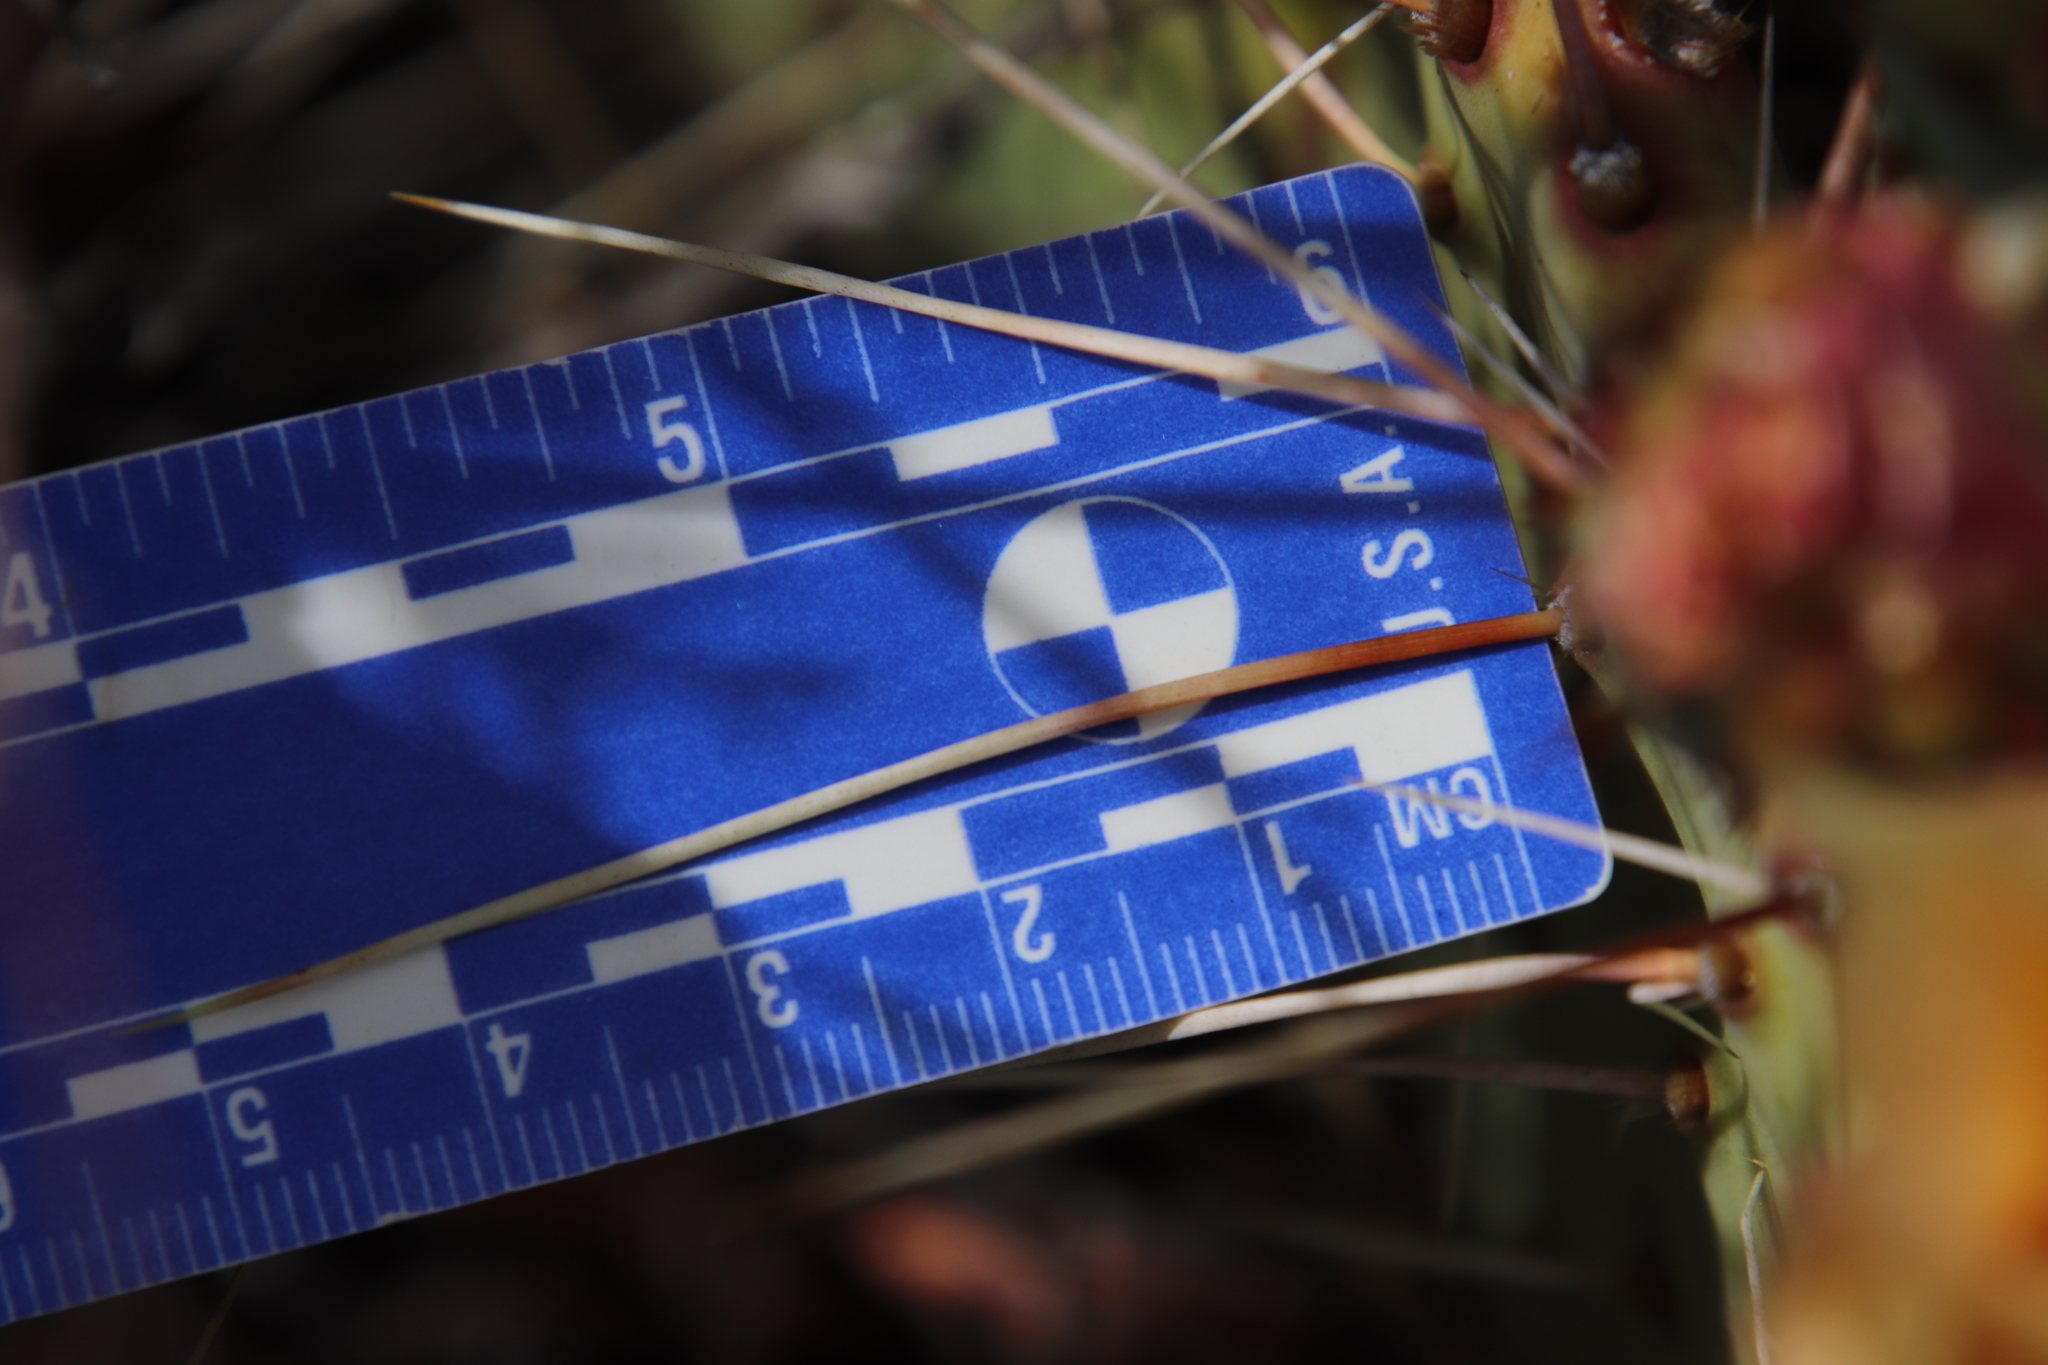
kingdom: Plantae
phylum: Tracheophyta
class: Magnoliopsida
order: Caryophyllales
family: Cactaceae
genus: Opuntia
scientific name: Opuntia phaeacantha
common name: New mexico prickly-pear
